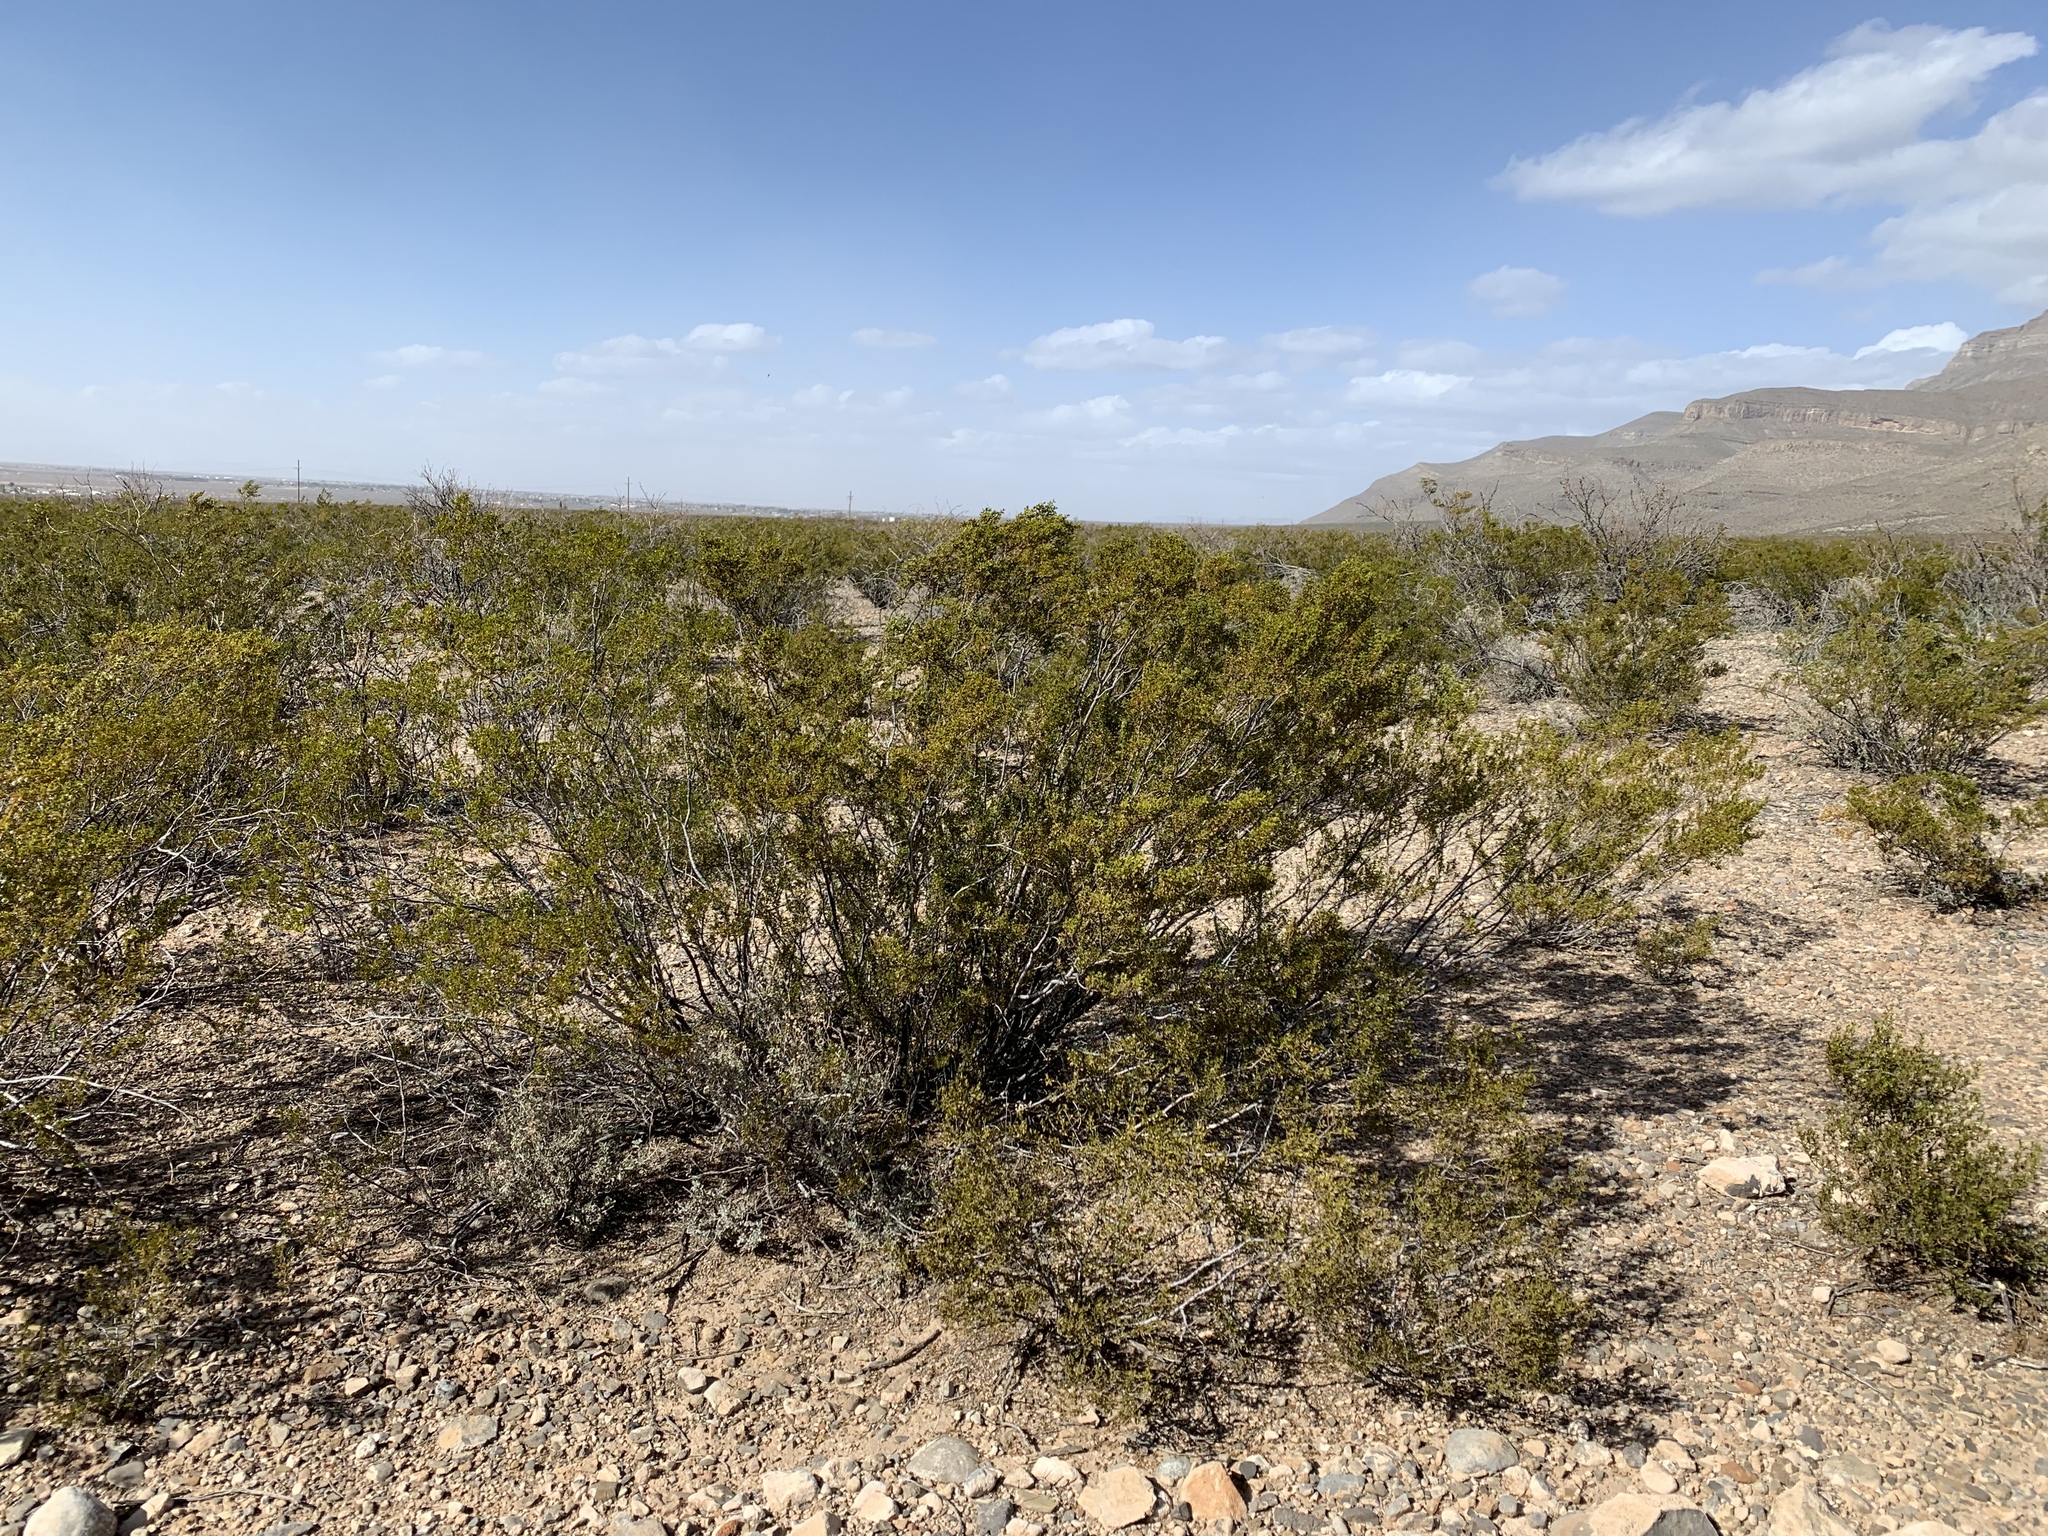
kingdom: Plantae
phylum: Tracheophyta
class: Magnoliopsida
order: Zygophyllales
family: Zygophyllaceae
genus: Larrea
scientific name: Larrea tridentata
